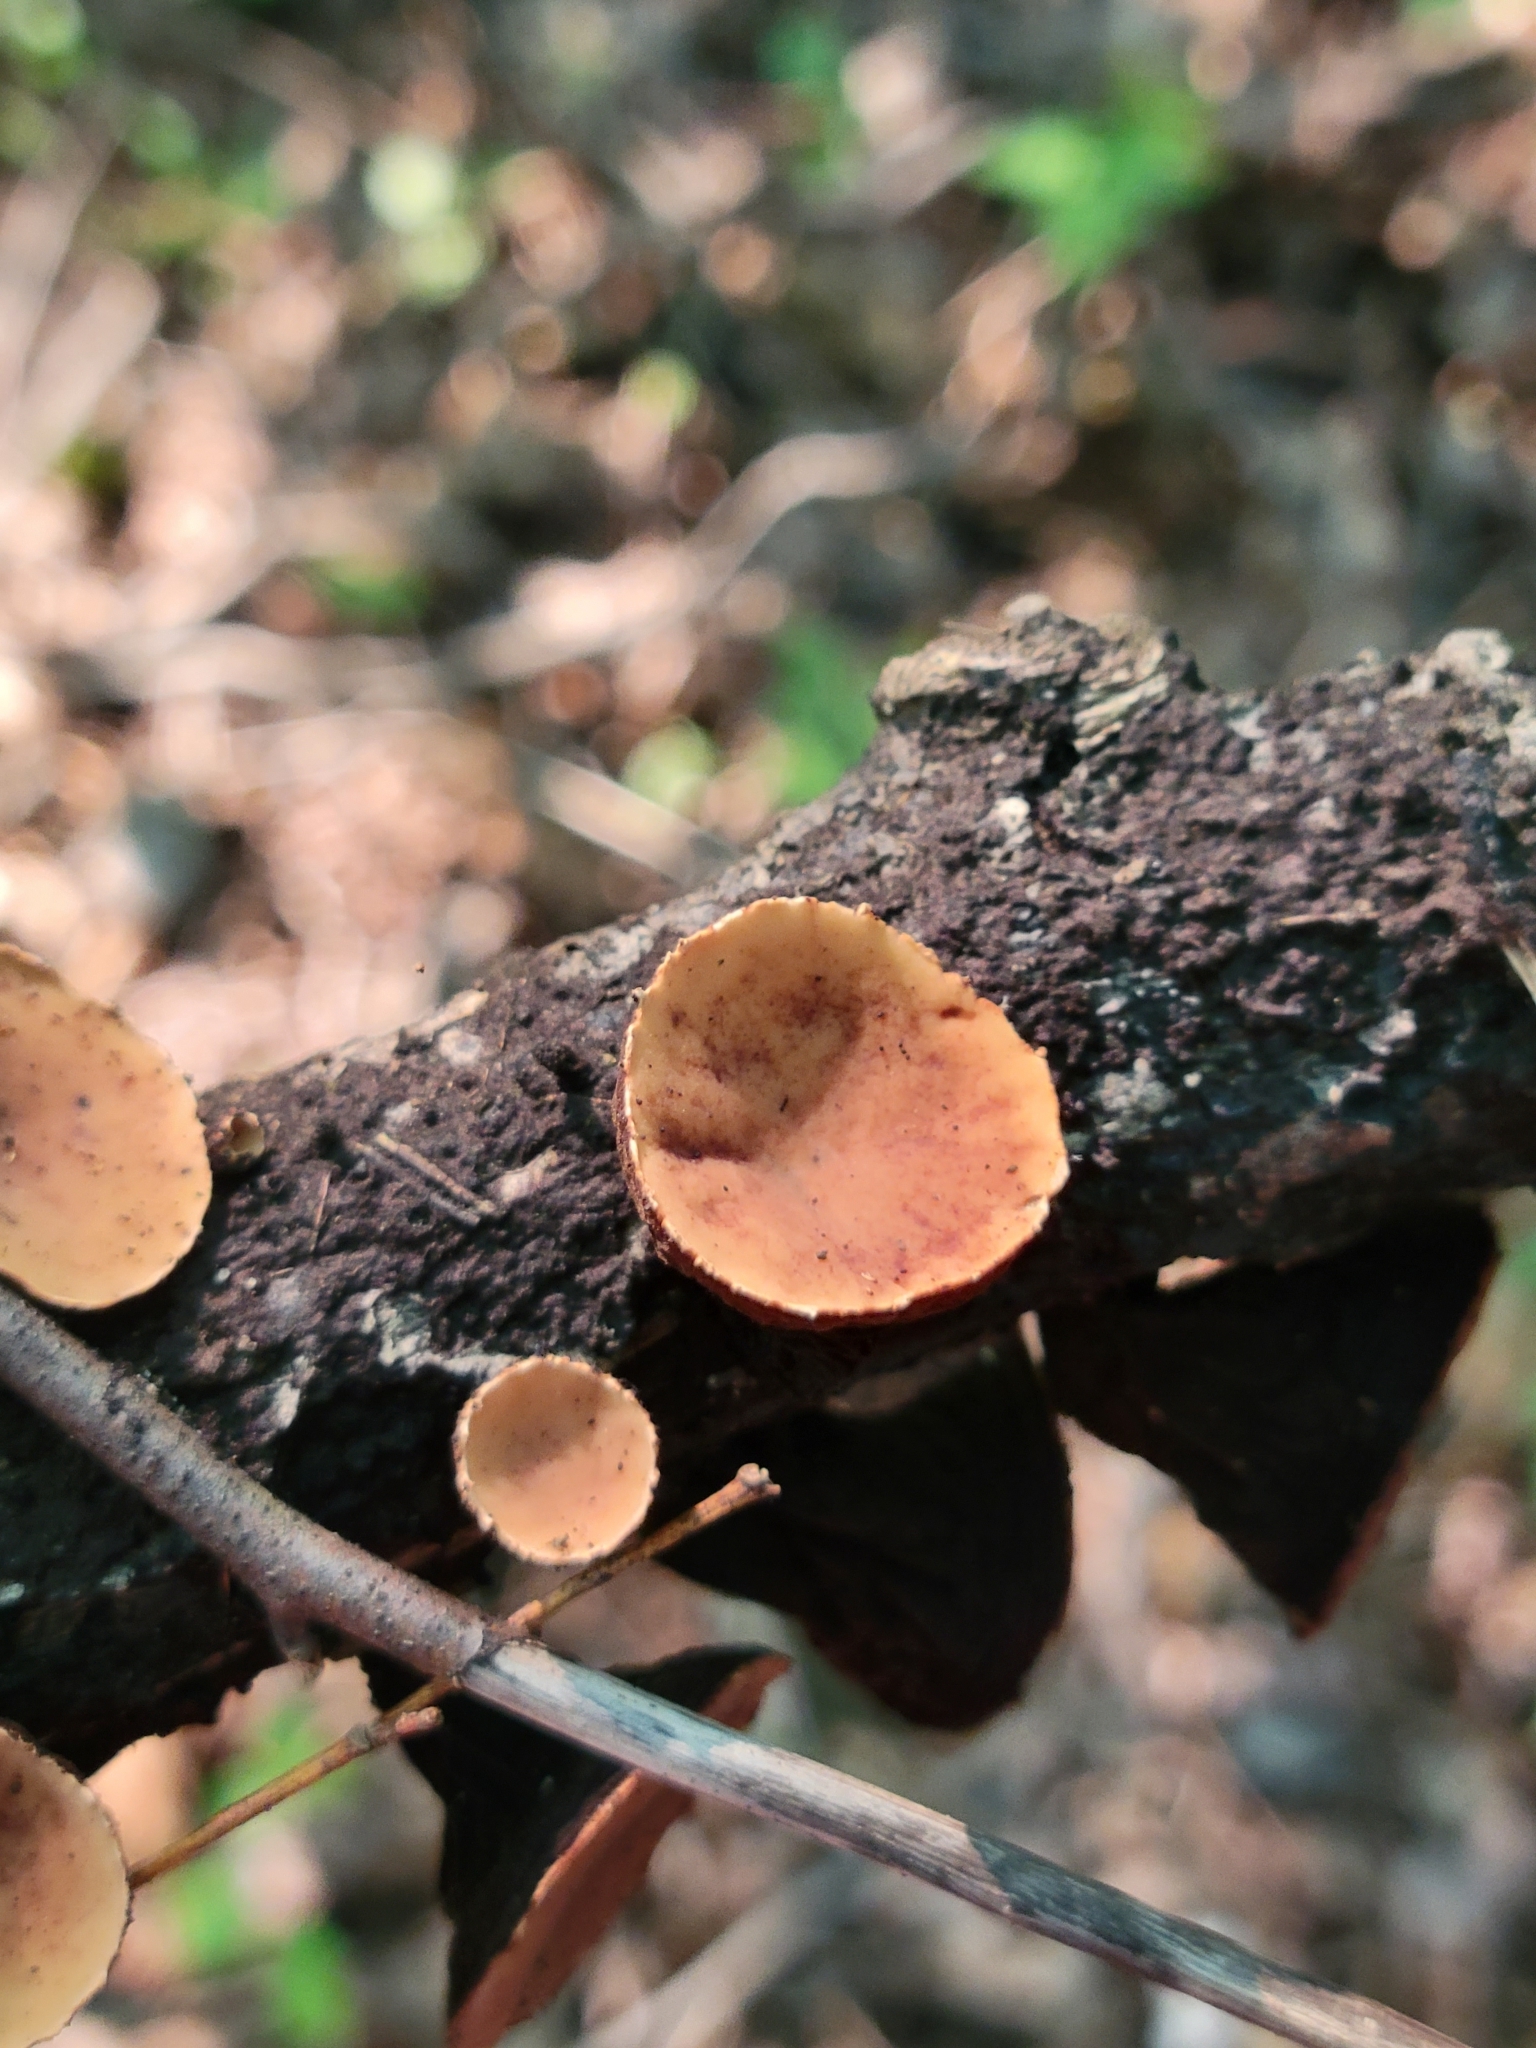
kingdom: Fungi
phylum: Ascomycota
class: Pezizomycetes
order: Pezizales
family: Sarcosomataceae
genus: Galiella
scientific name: Galiella rufa
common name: Hairy rubber cup
